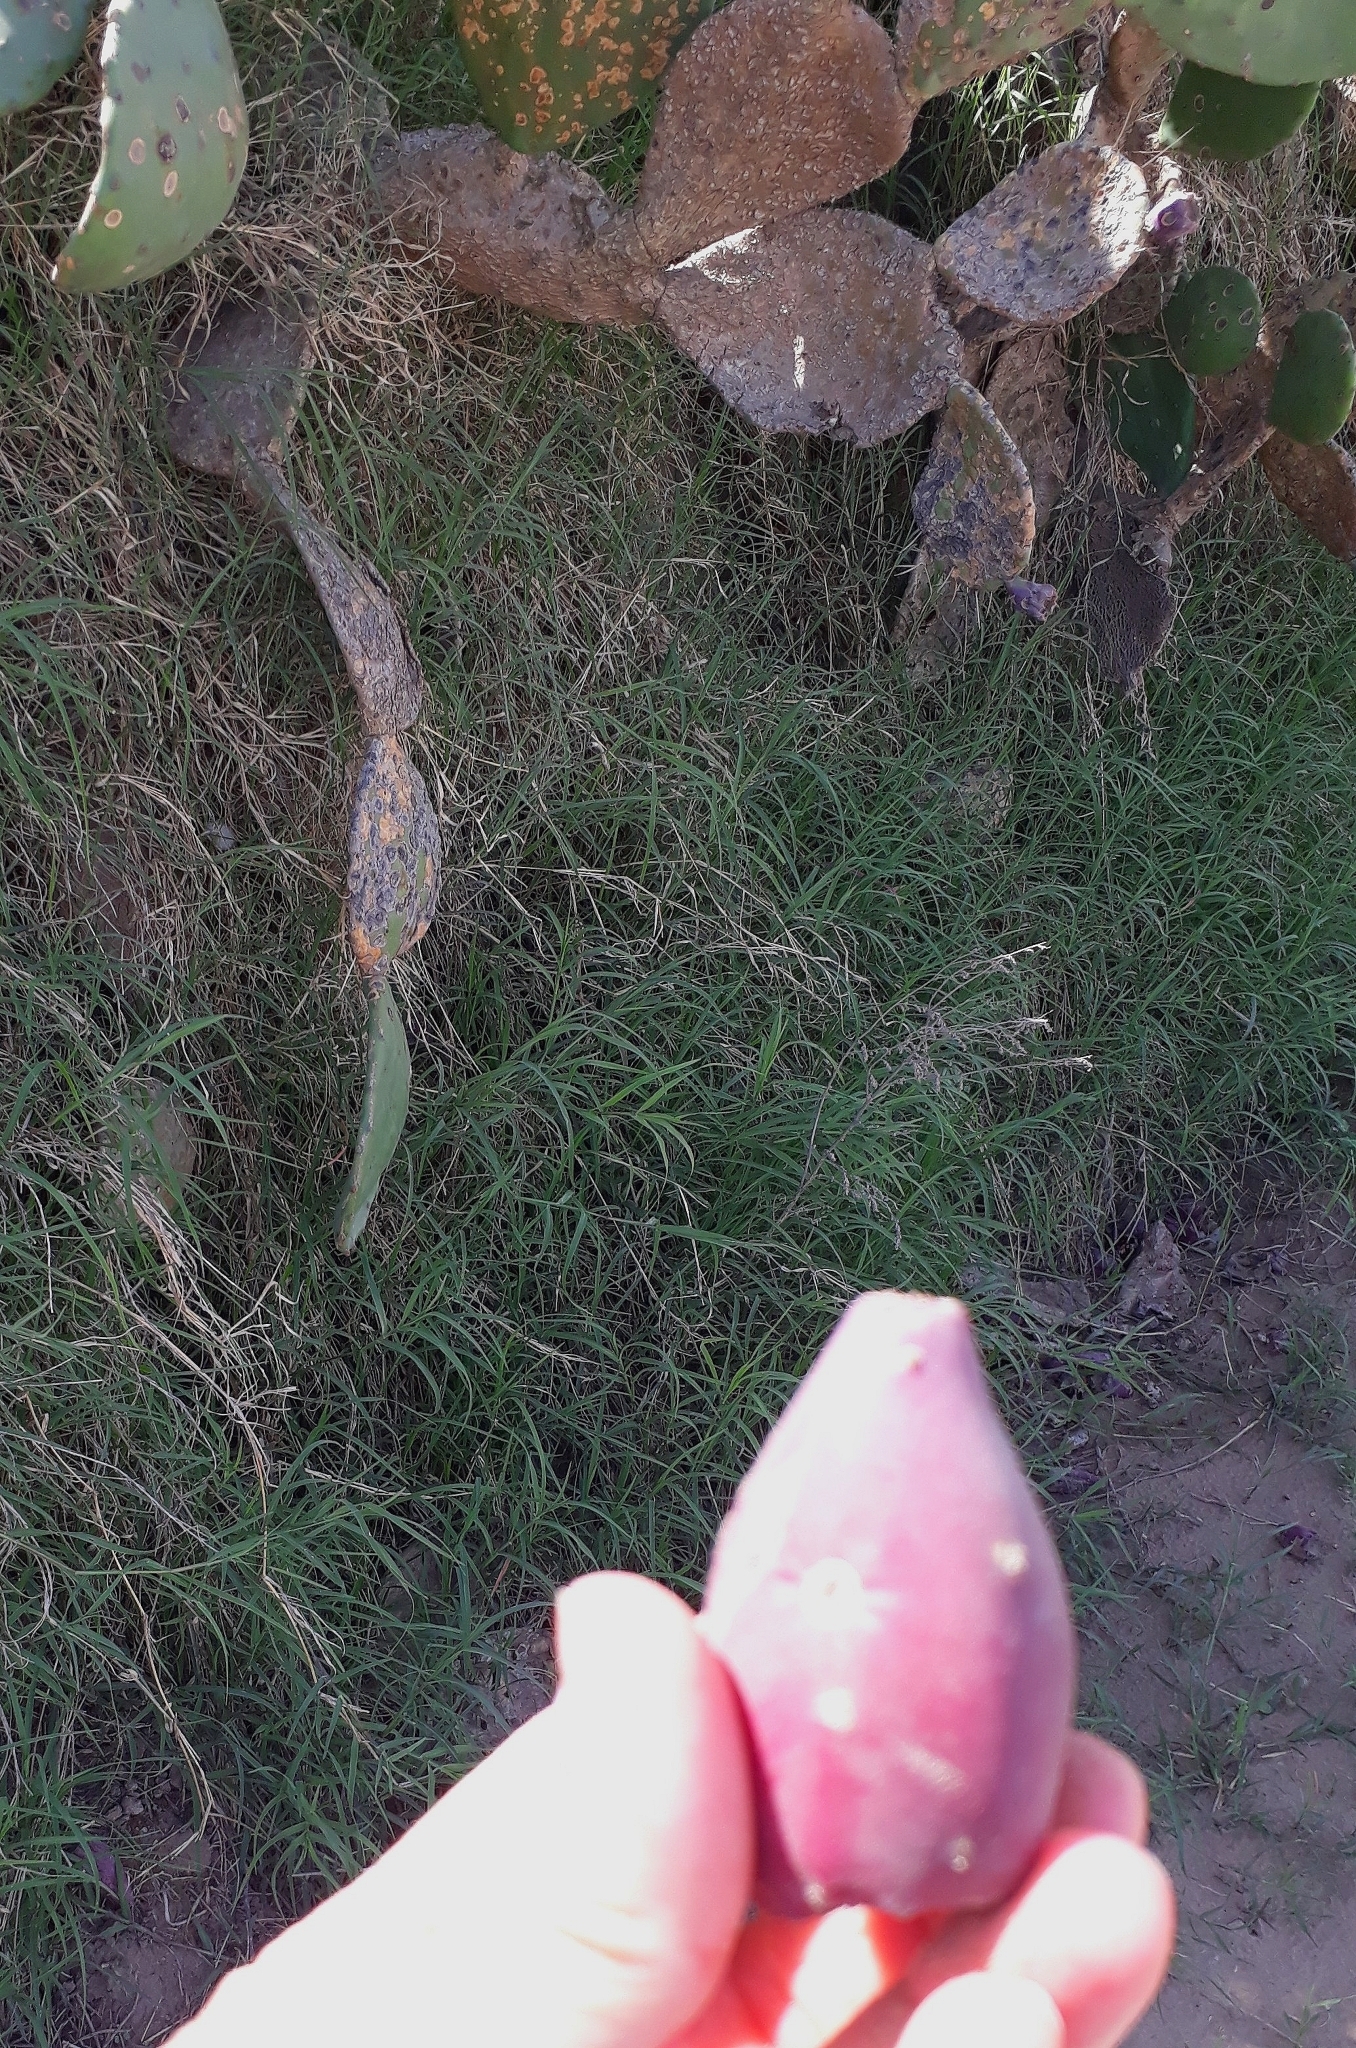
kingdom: Plantae
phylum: Tracheophyta
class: Magnoliopsida
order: Caryophyllales
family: Cactaceae
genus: Opuntia
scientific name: Opuntia megapotamica
